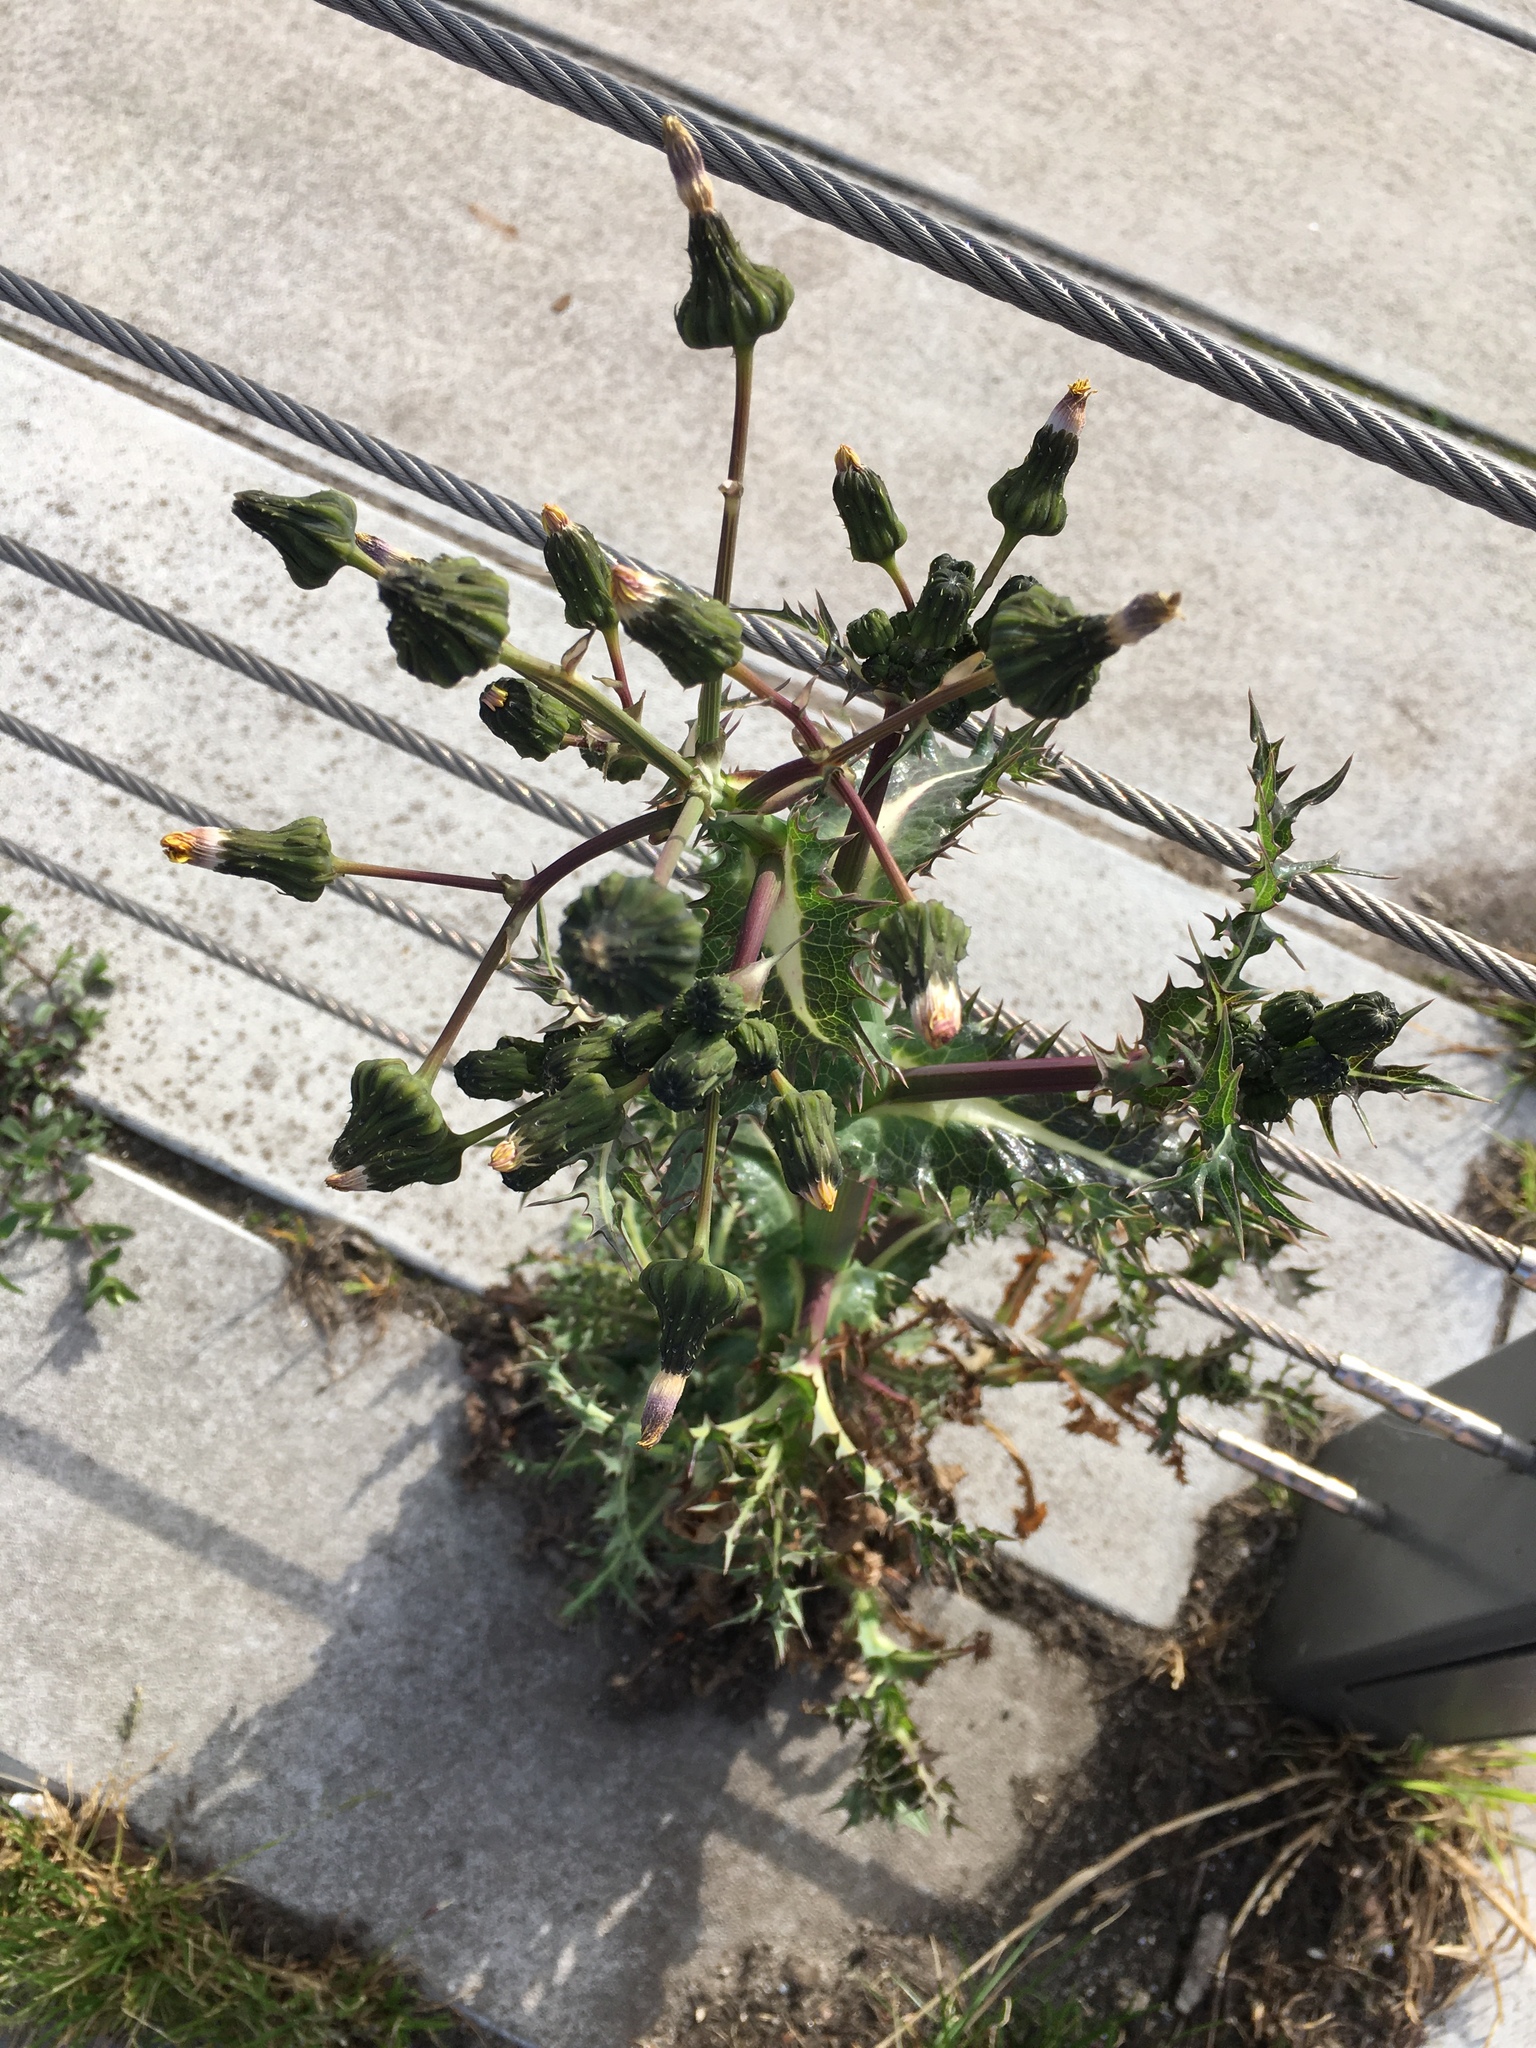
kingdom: Plantae
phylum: Tracheophyta
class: Magnoliopsida
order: Asterales
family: Asteraceae
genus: Sonchus
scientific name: Sonchus asper
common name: Prickly sow-thistle
